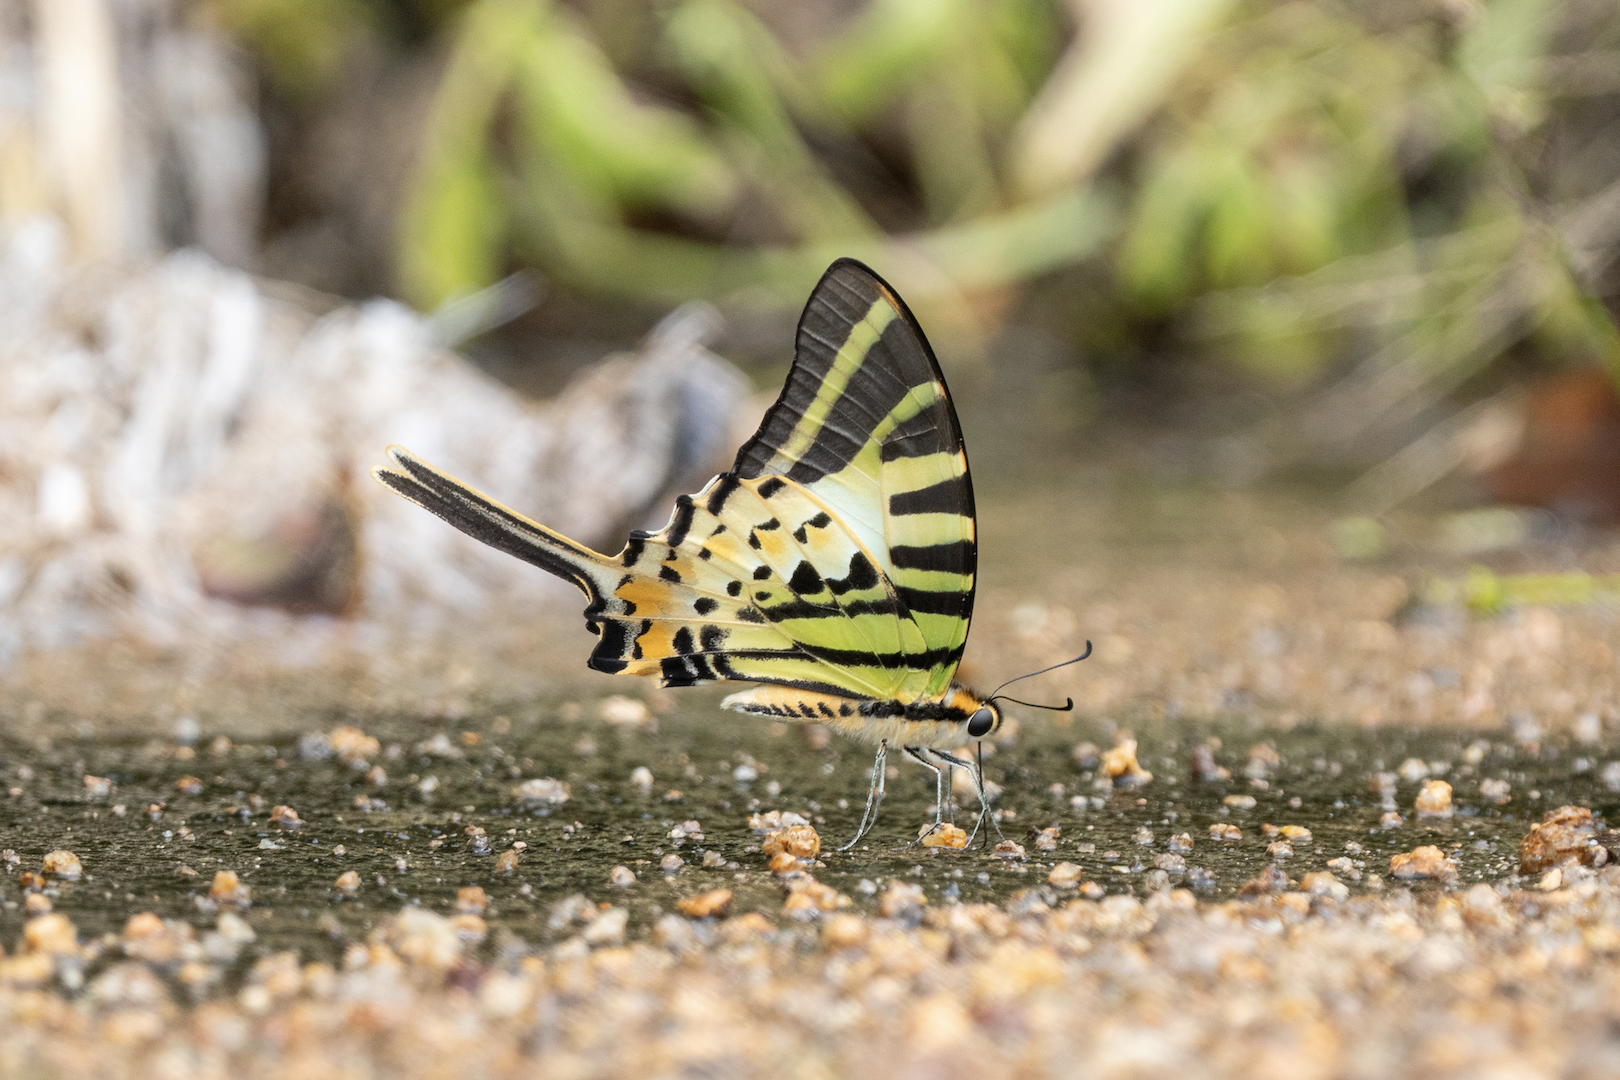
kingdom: Animalia
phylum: Arthropoda
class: Insecta
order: Lepidoptera
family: Papilionidae
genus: Graphium
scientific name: Graphium antiphates
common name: Fivebar swordtail
